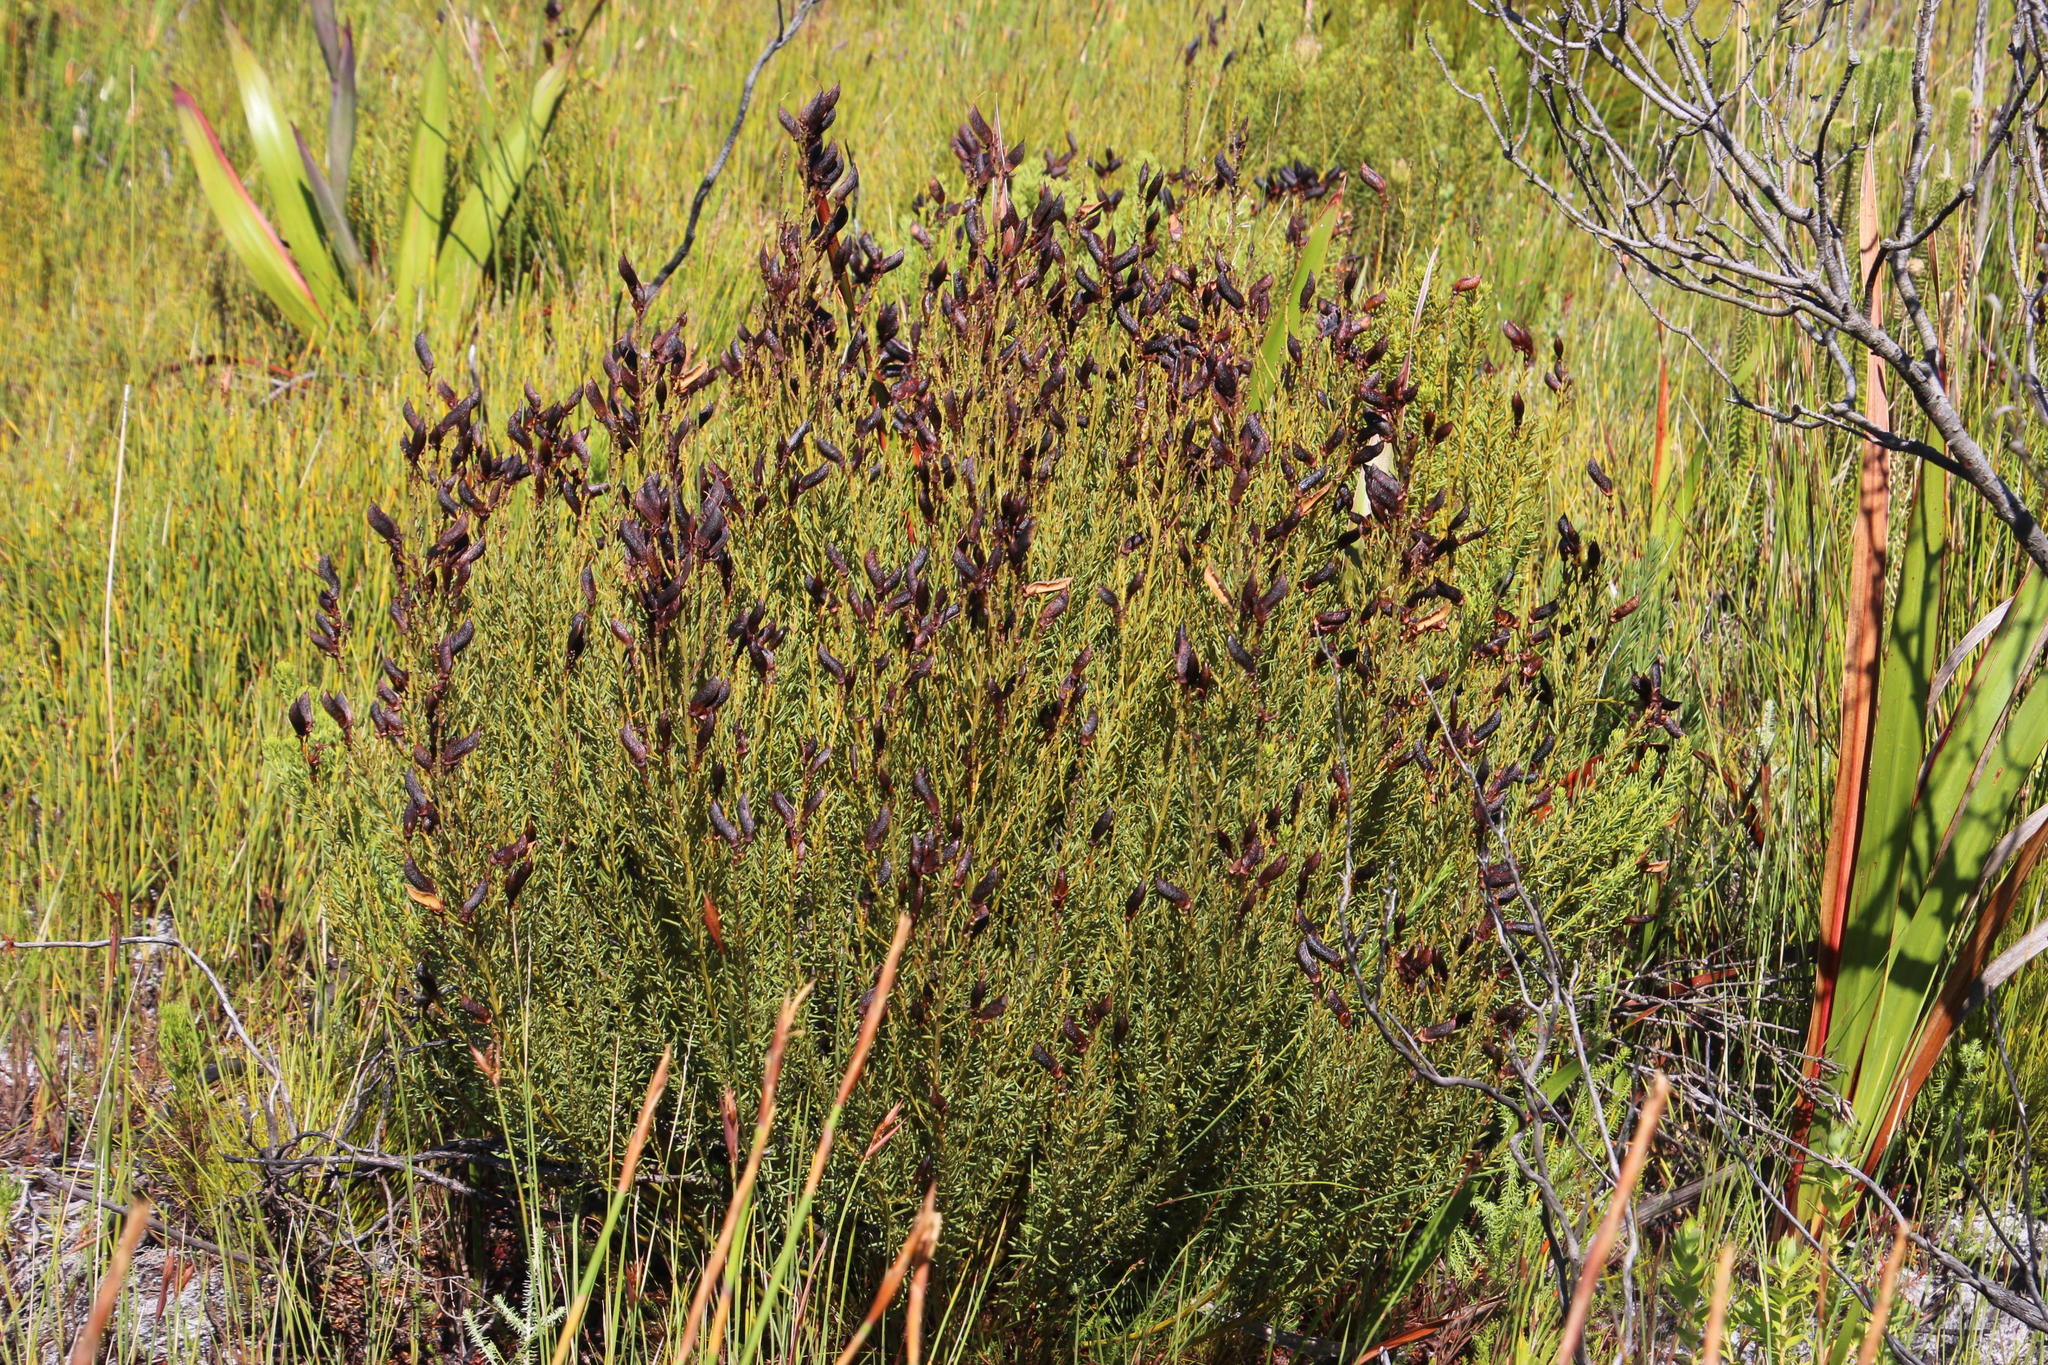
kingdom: Plantae
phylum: Tracheophyta
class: Magnoliopsida
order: Fabales
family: Fabaceae
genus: Cyclopia
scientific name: Cyclopia genistoides
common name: Honeybush tea
